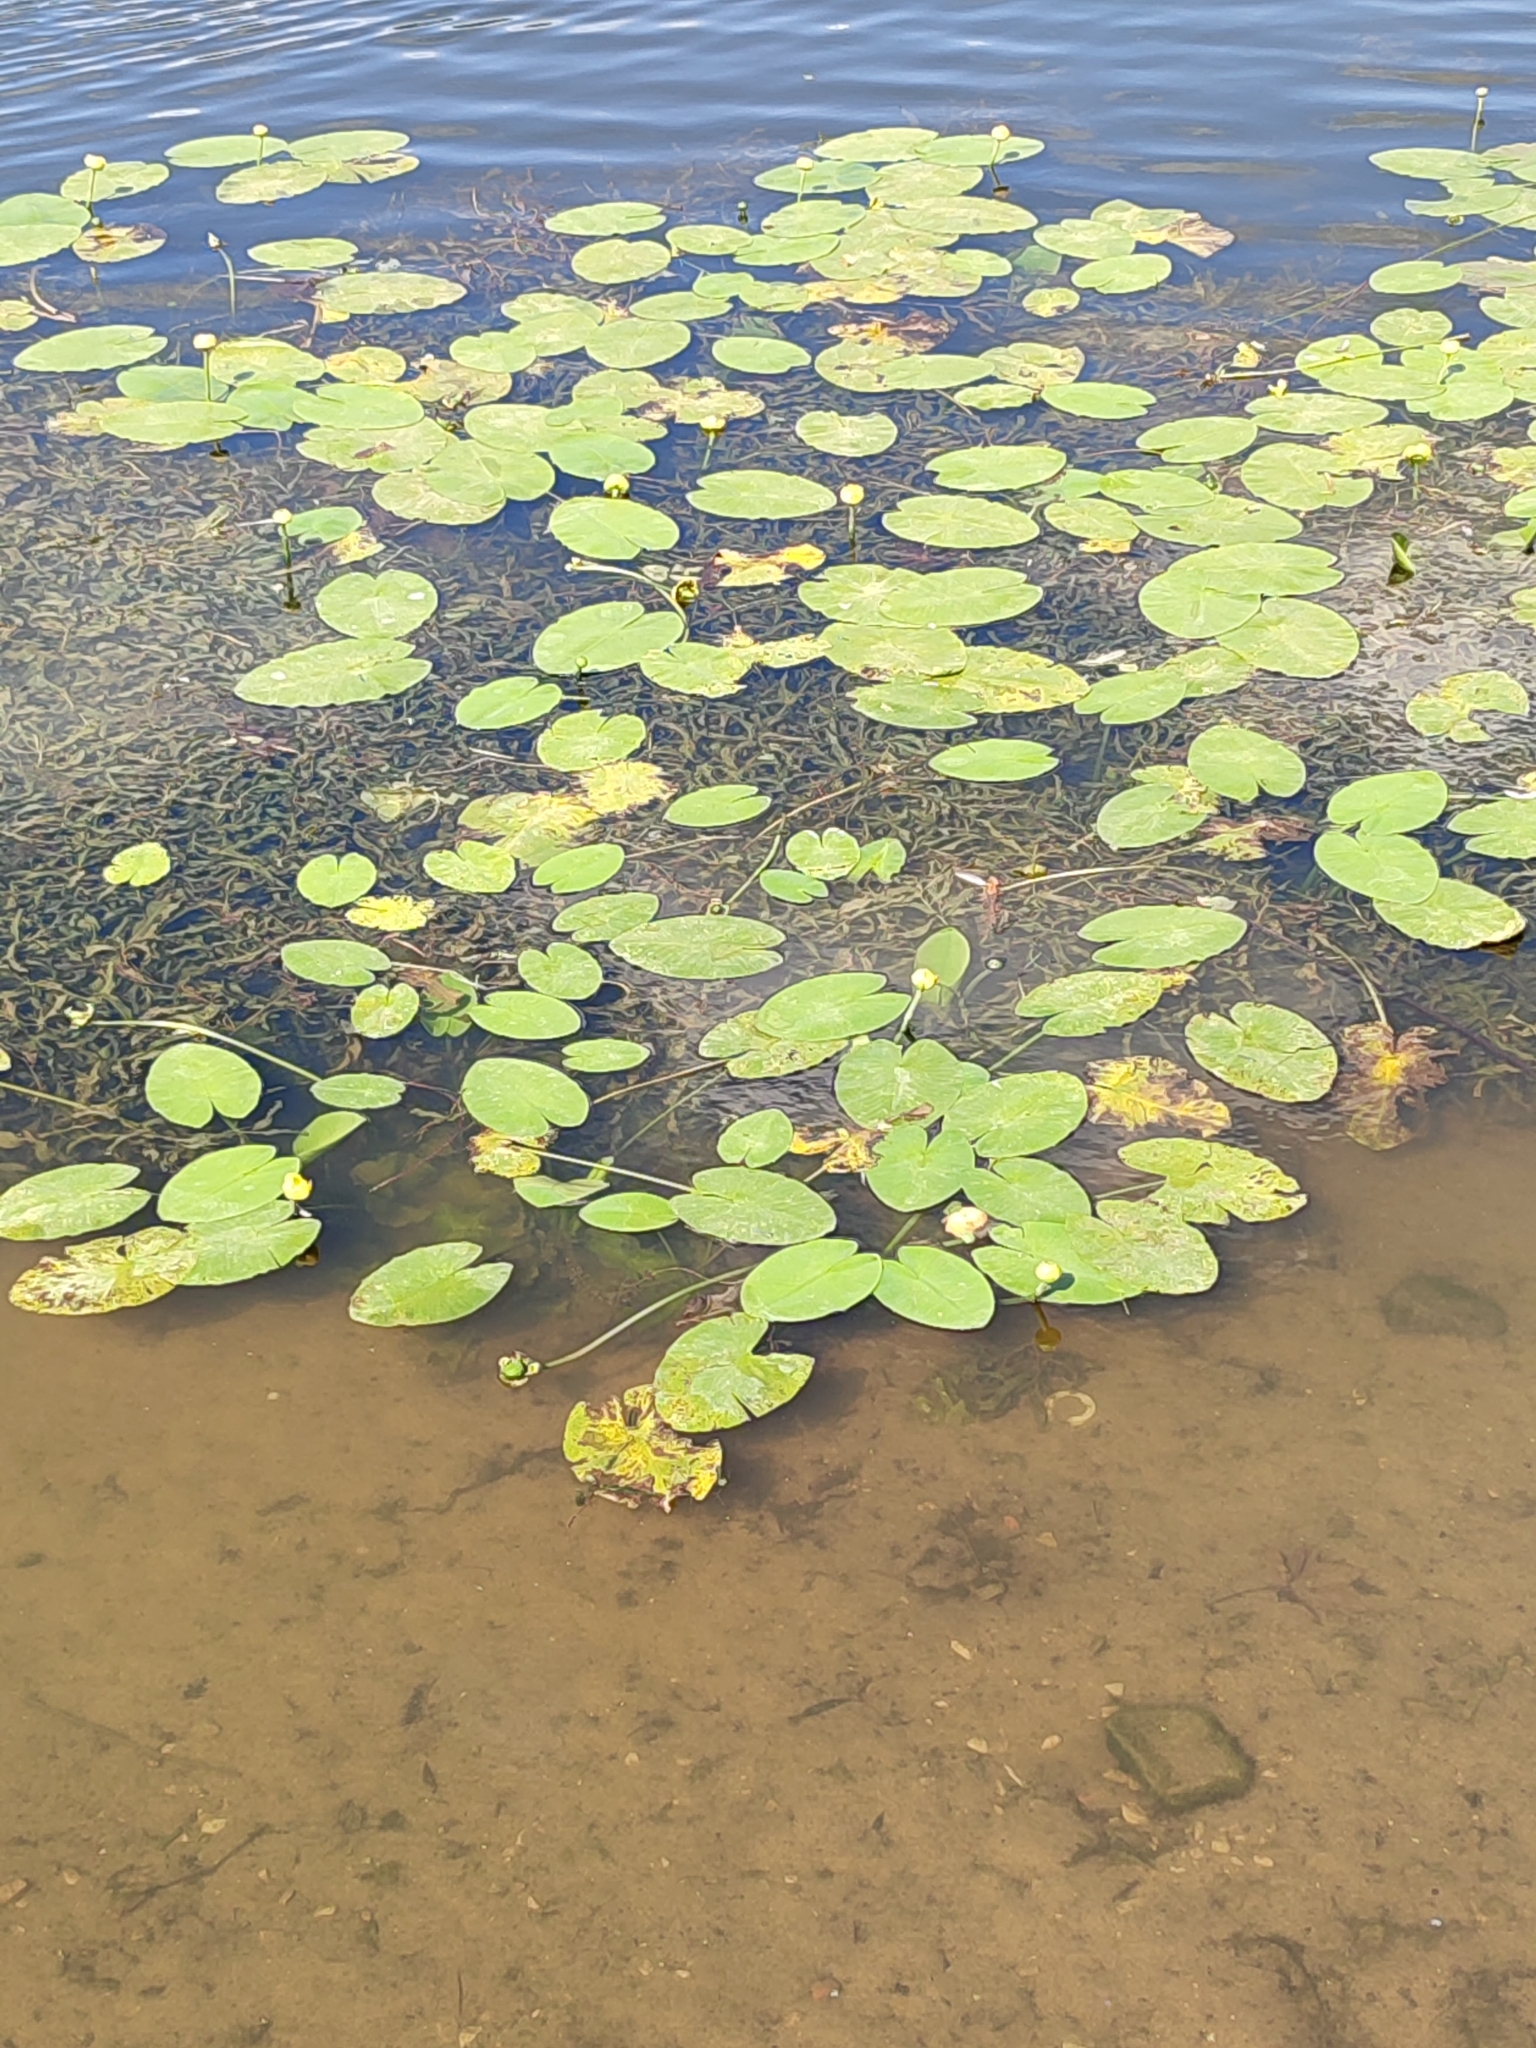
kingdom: Plantae
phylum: Tracheophyta
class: Magnoliopsida
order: Nymphaeales
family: Nymphaeaceae
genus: Nuphar
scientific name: Nuphar lutea
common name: Yellow water-lily
